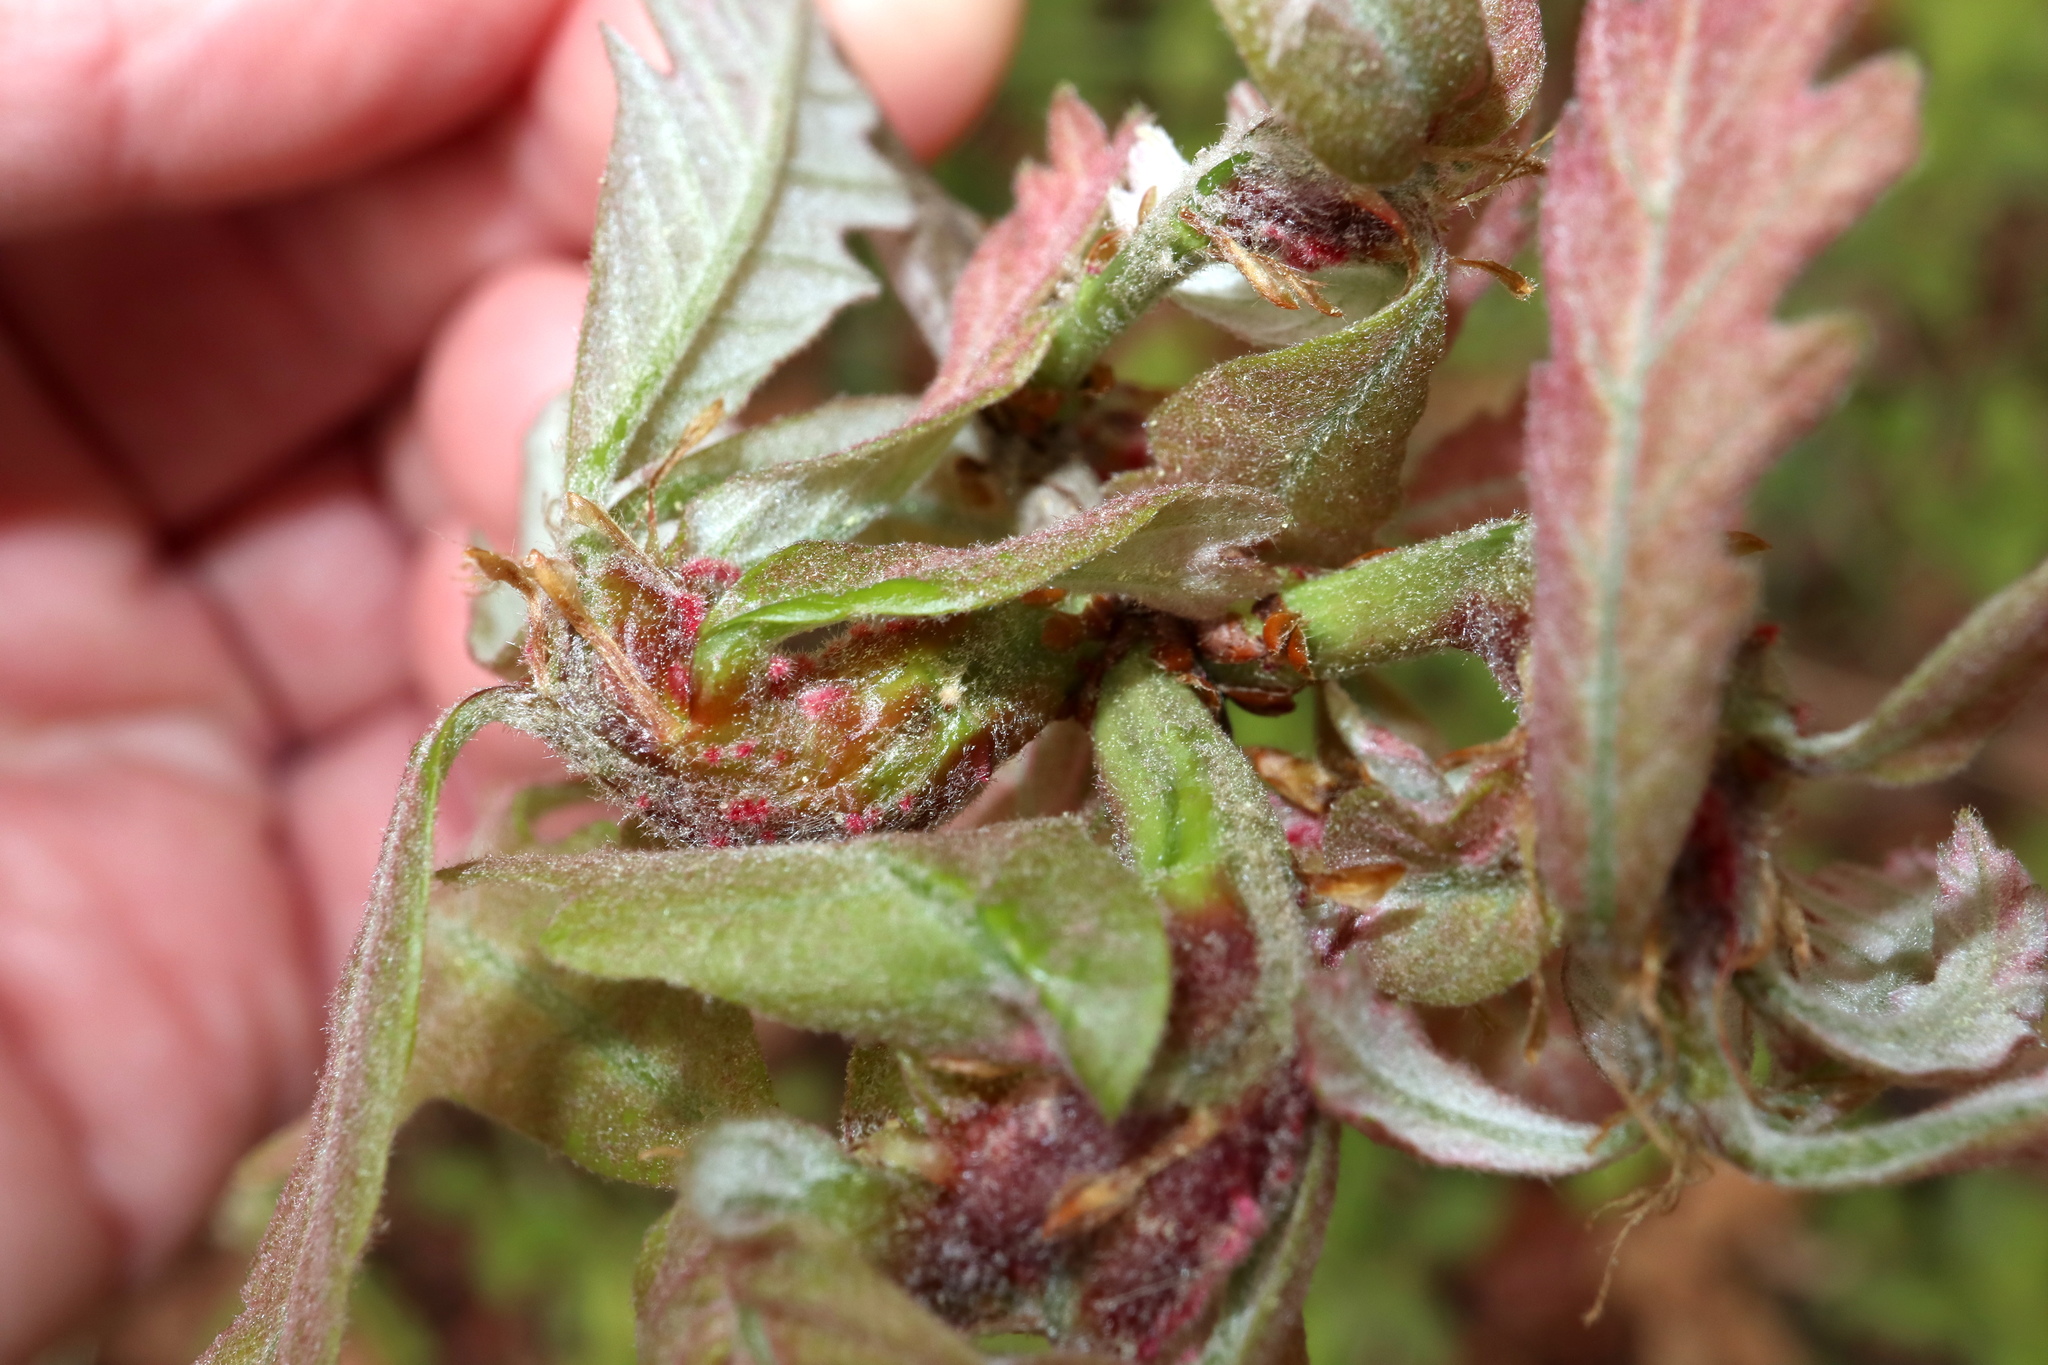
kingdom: Animalia
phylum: Arthropoda
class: Insecta
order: Hymenoptera
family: Cynipidae
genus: Neuroterus
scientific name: Neuroterus quercusbaccarum
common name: Common spangle gall
